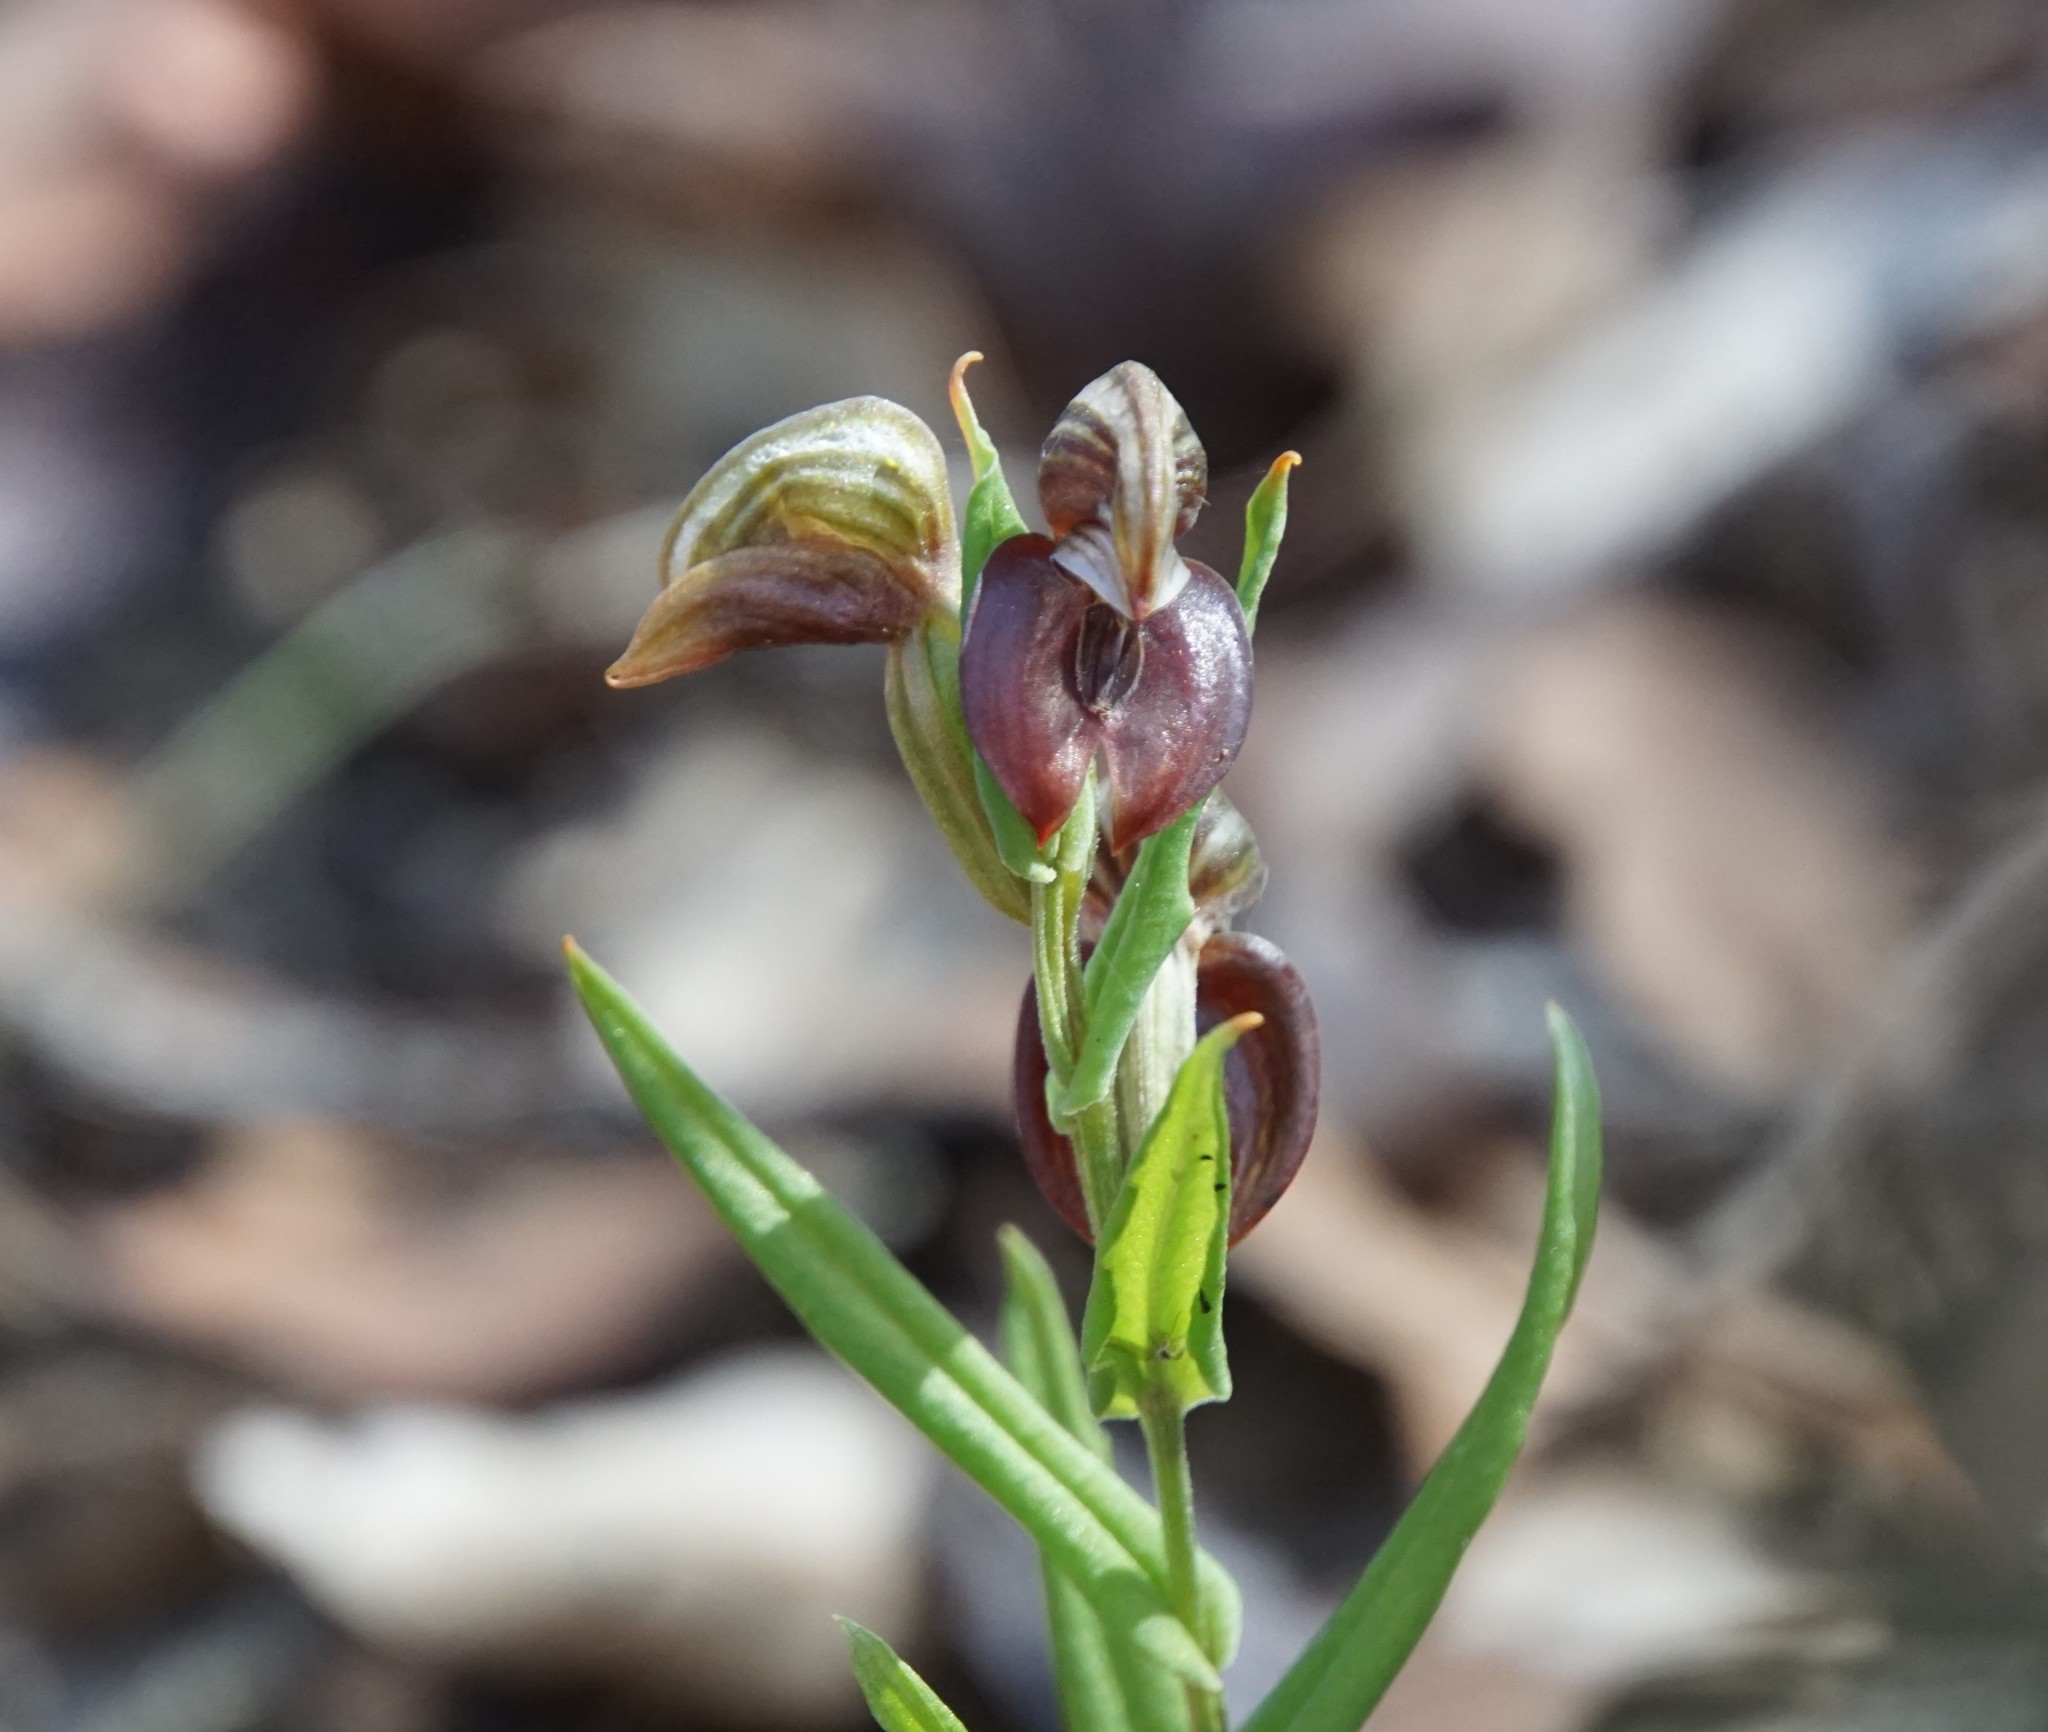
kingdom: Plantae
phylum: Tracheophyta
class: Liliopsida
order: Asparagales
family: Orchidaceae
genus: Pterostylis
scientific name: Pterostylis sanguinea
